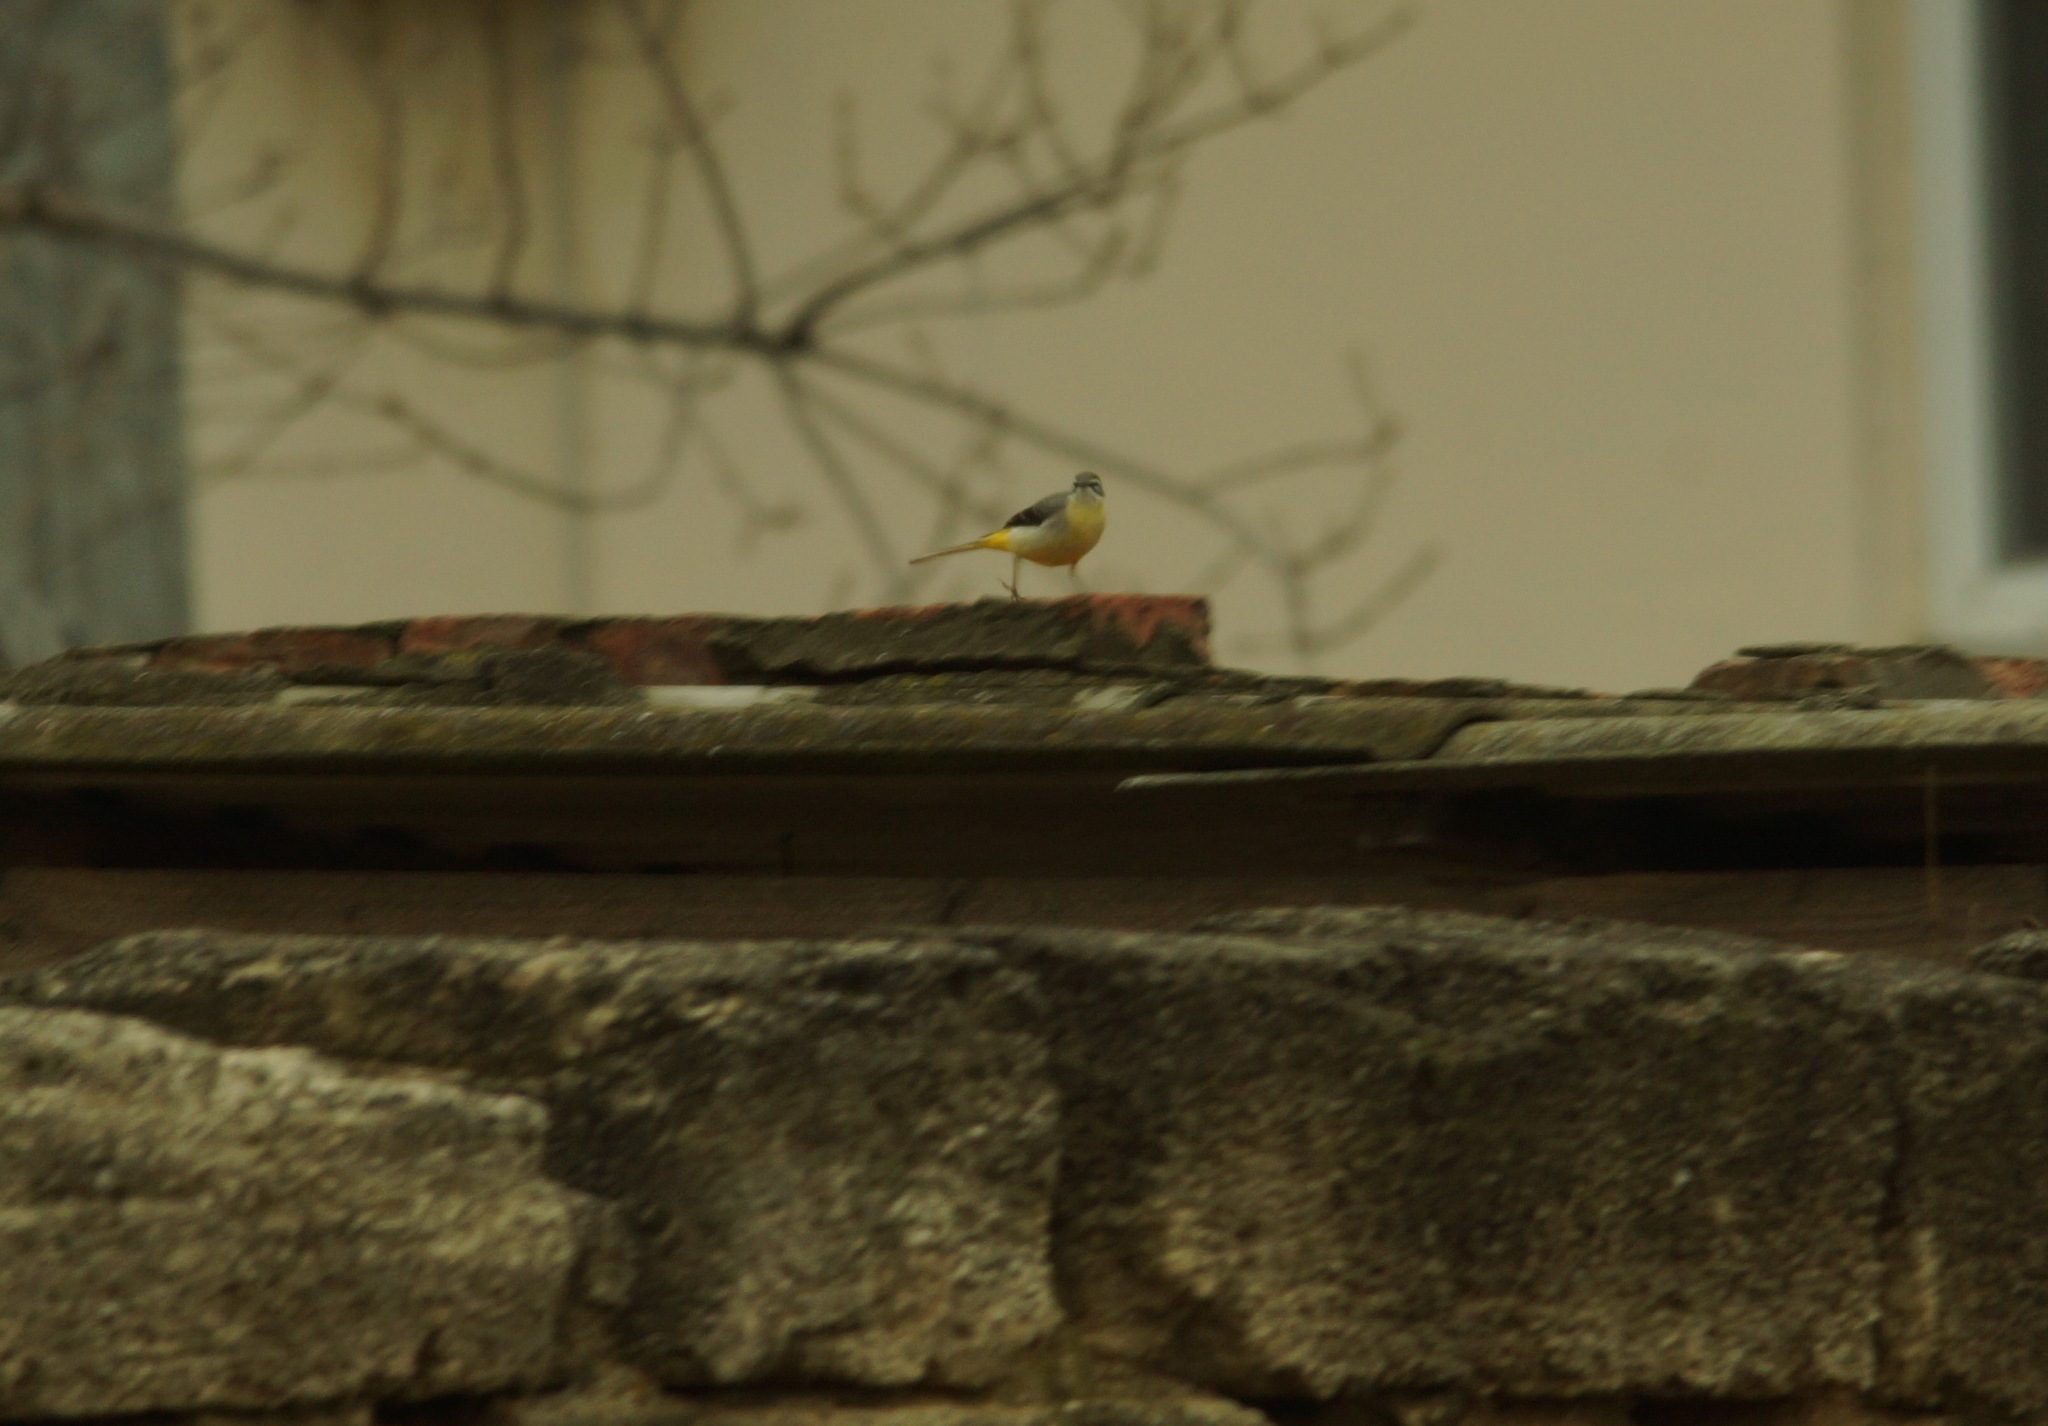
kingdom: Animalia
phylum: Chordata
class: Aves
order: Passeriformes
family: Motacillidae
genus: Motacilla
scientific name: Motacilla cinerea
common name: Grey wagtail
